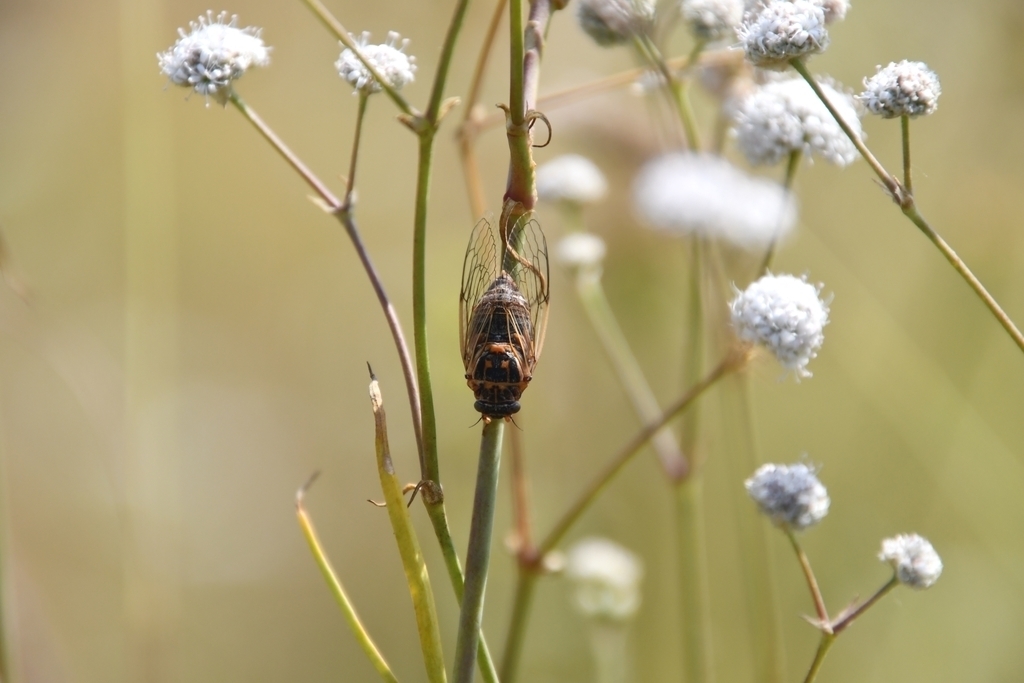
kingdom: Animalia
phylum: Arthropoda
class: Insecta
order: Hemiptera
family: Cicadidae
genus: Cicadatra
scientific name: Cicadatra hyalina
